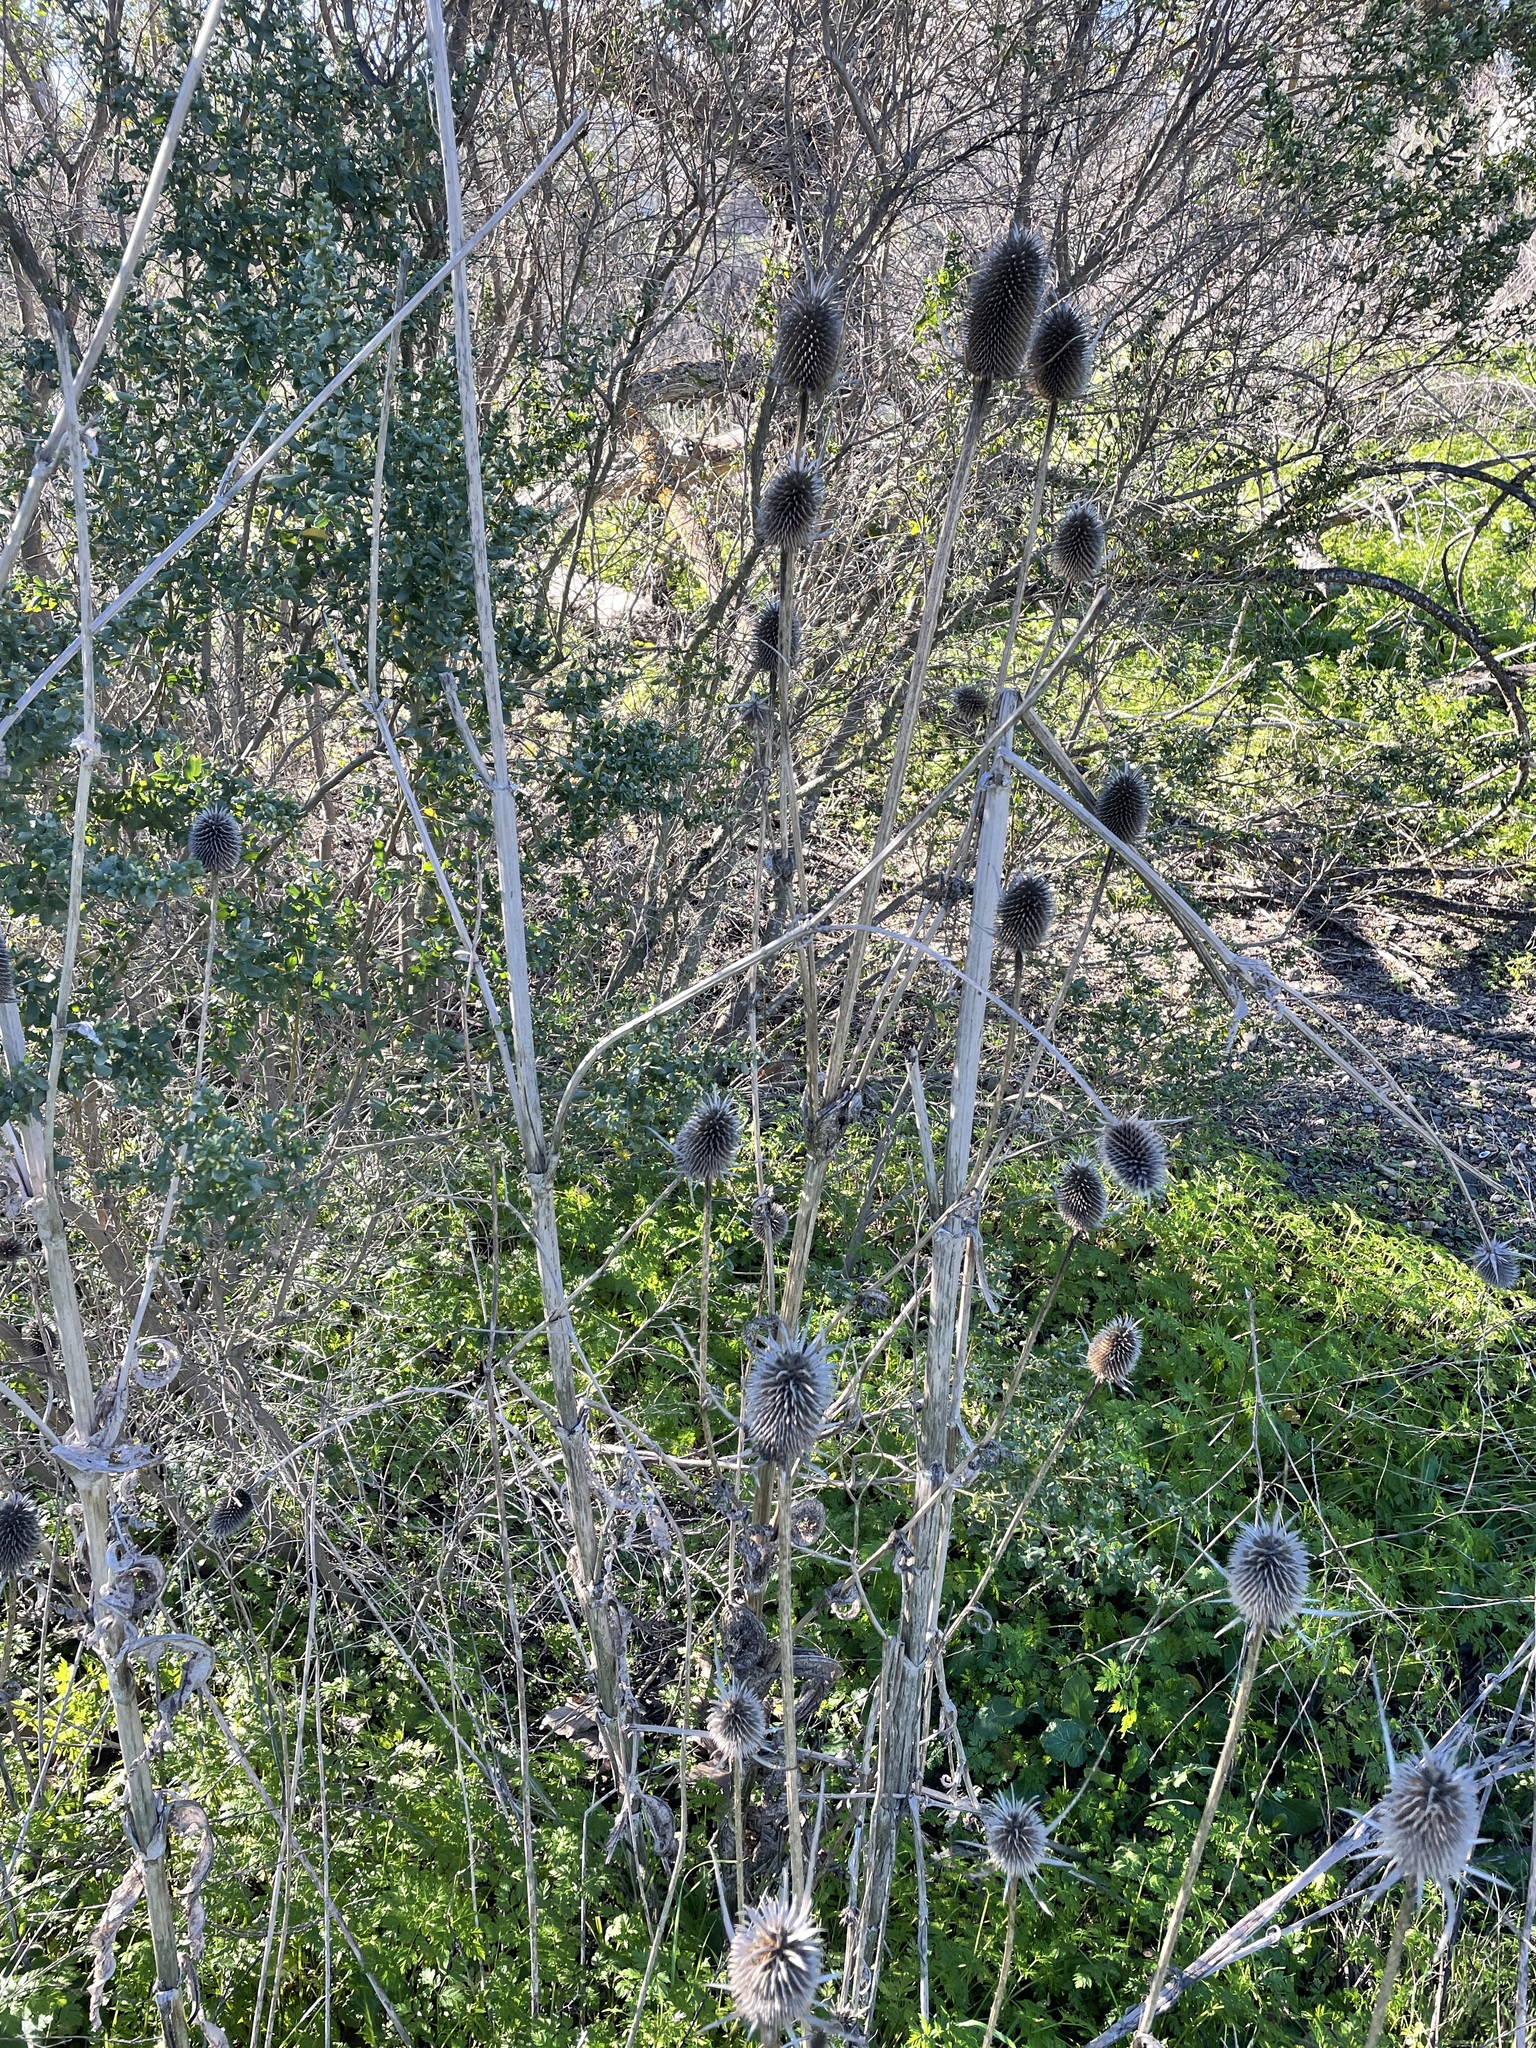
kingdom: Plantae
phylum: Tracheophyta
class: Magnoliopsida
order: Dipsacales
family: Caprifoliaceae
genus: Dipsacus
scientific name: Dipsacus sativus
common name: Fuller's teasel
